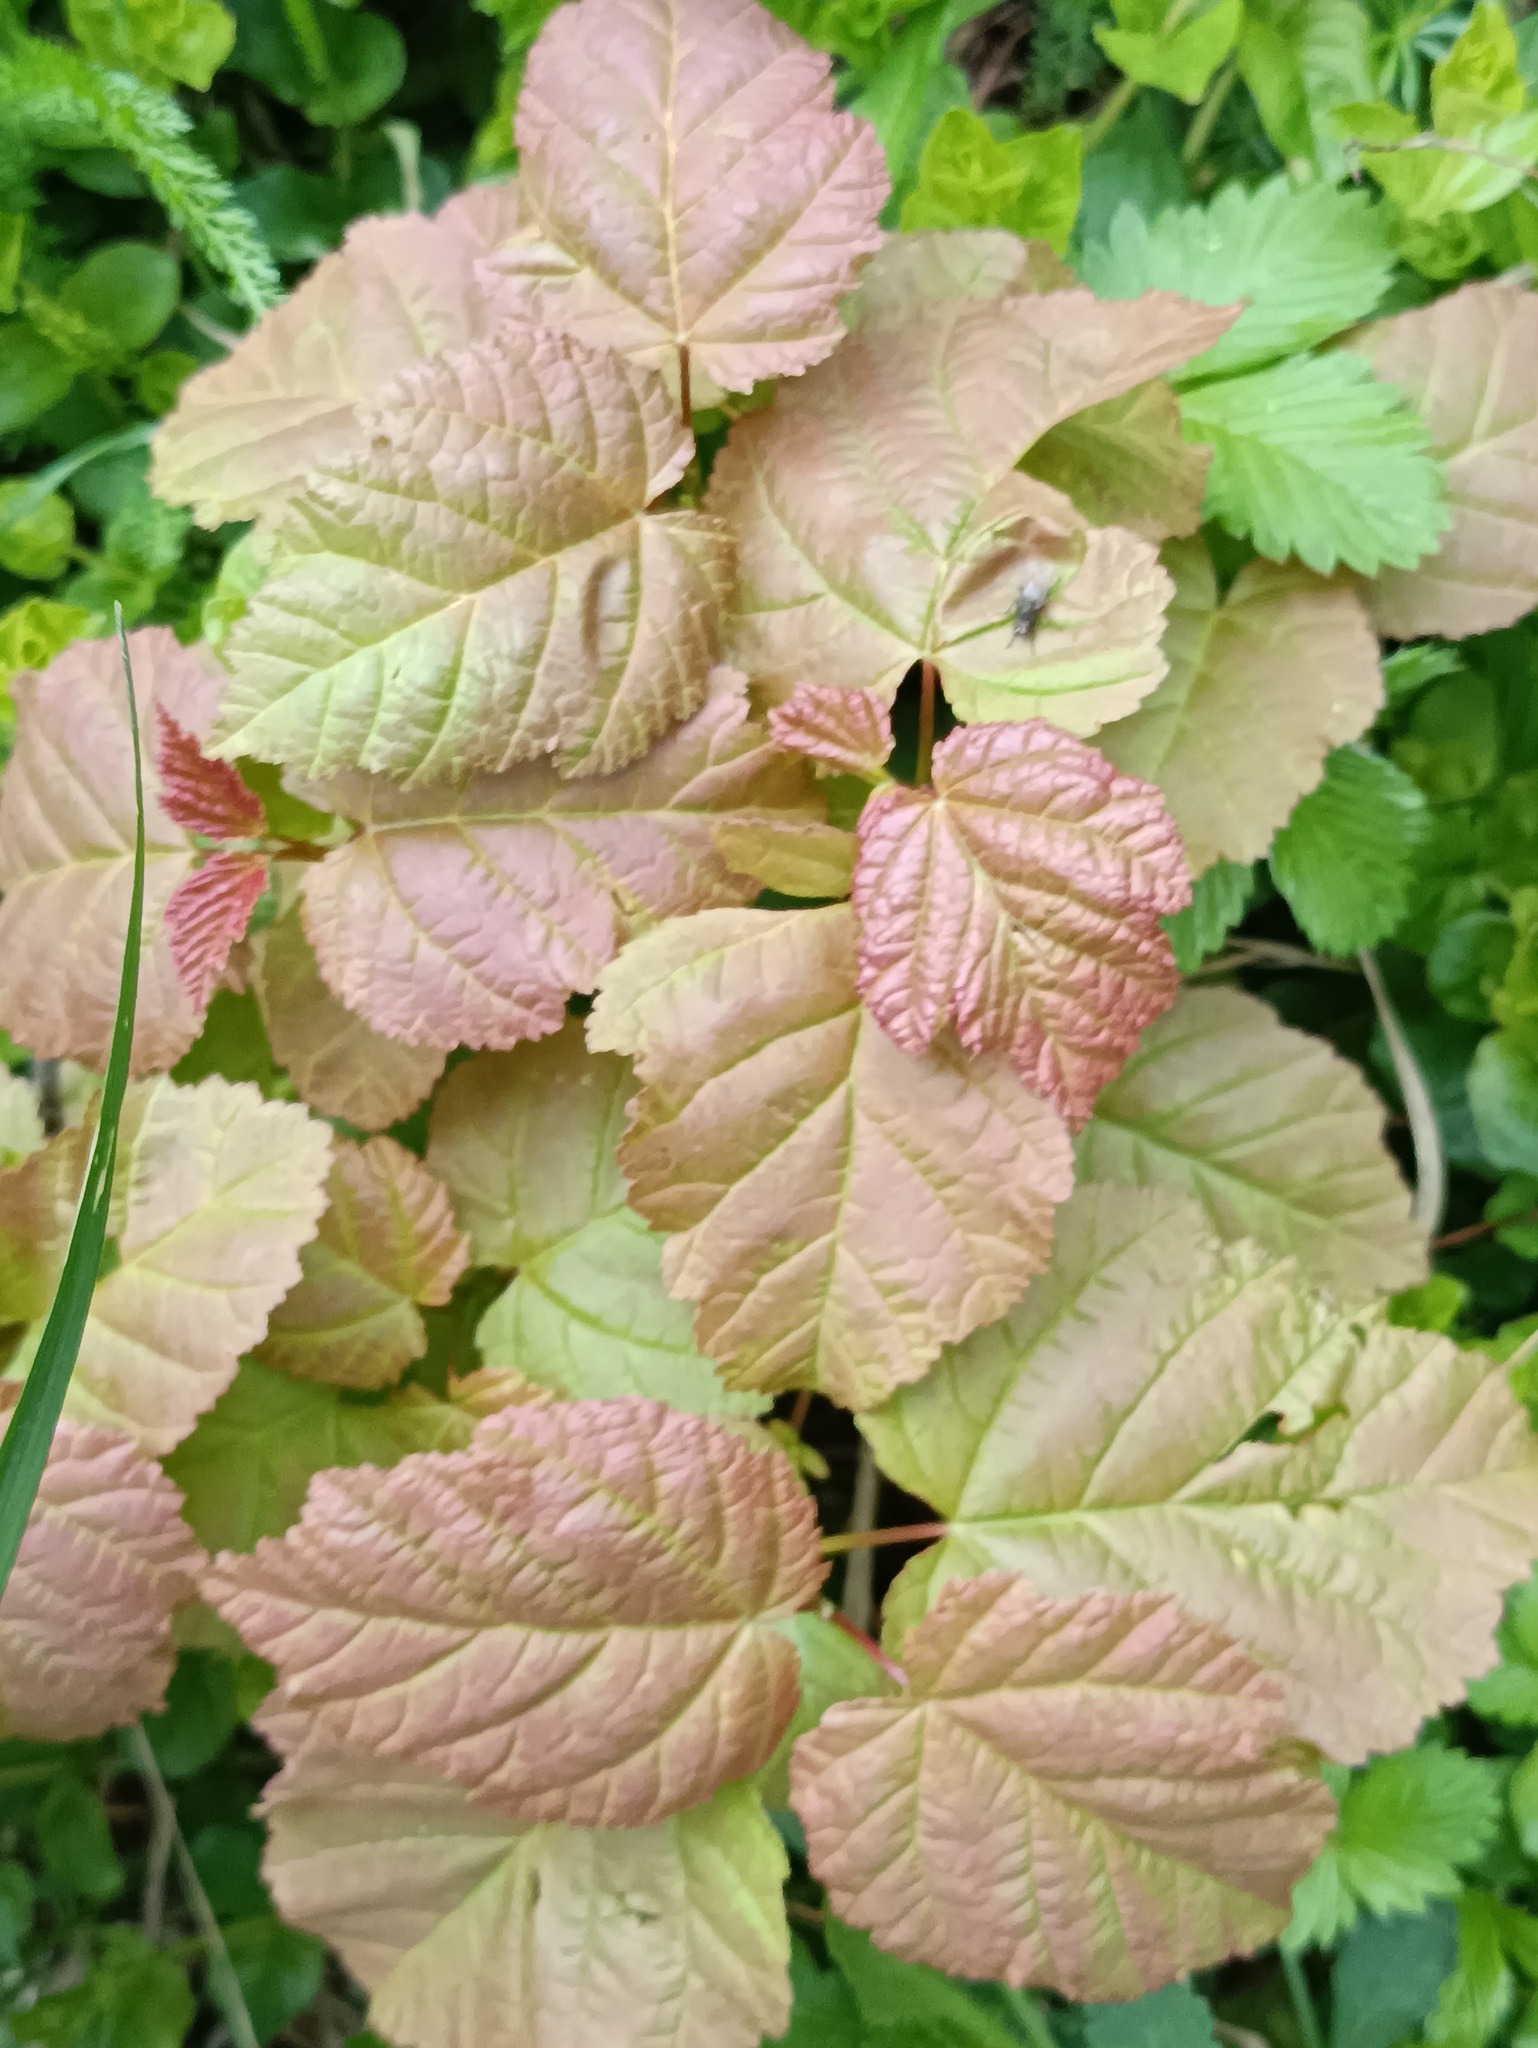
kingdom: Plantae
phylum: Tracheophyta
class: Magnoliopsida
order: Sapindales
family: Sapindaceae
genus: Acer
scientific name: Acer tataricum
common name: Tartar maple
